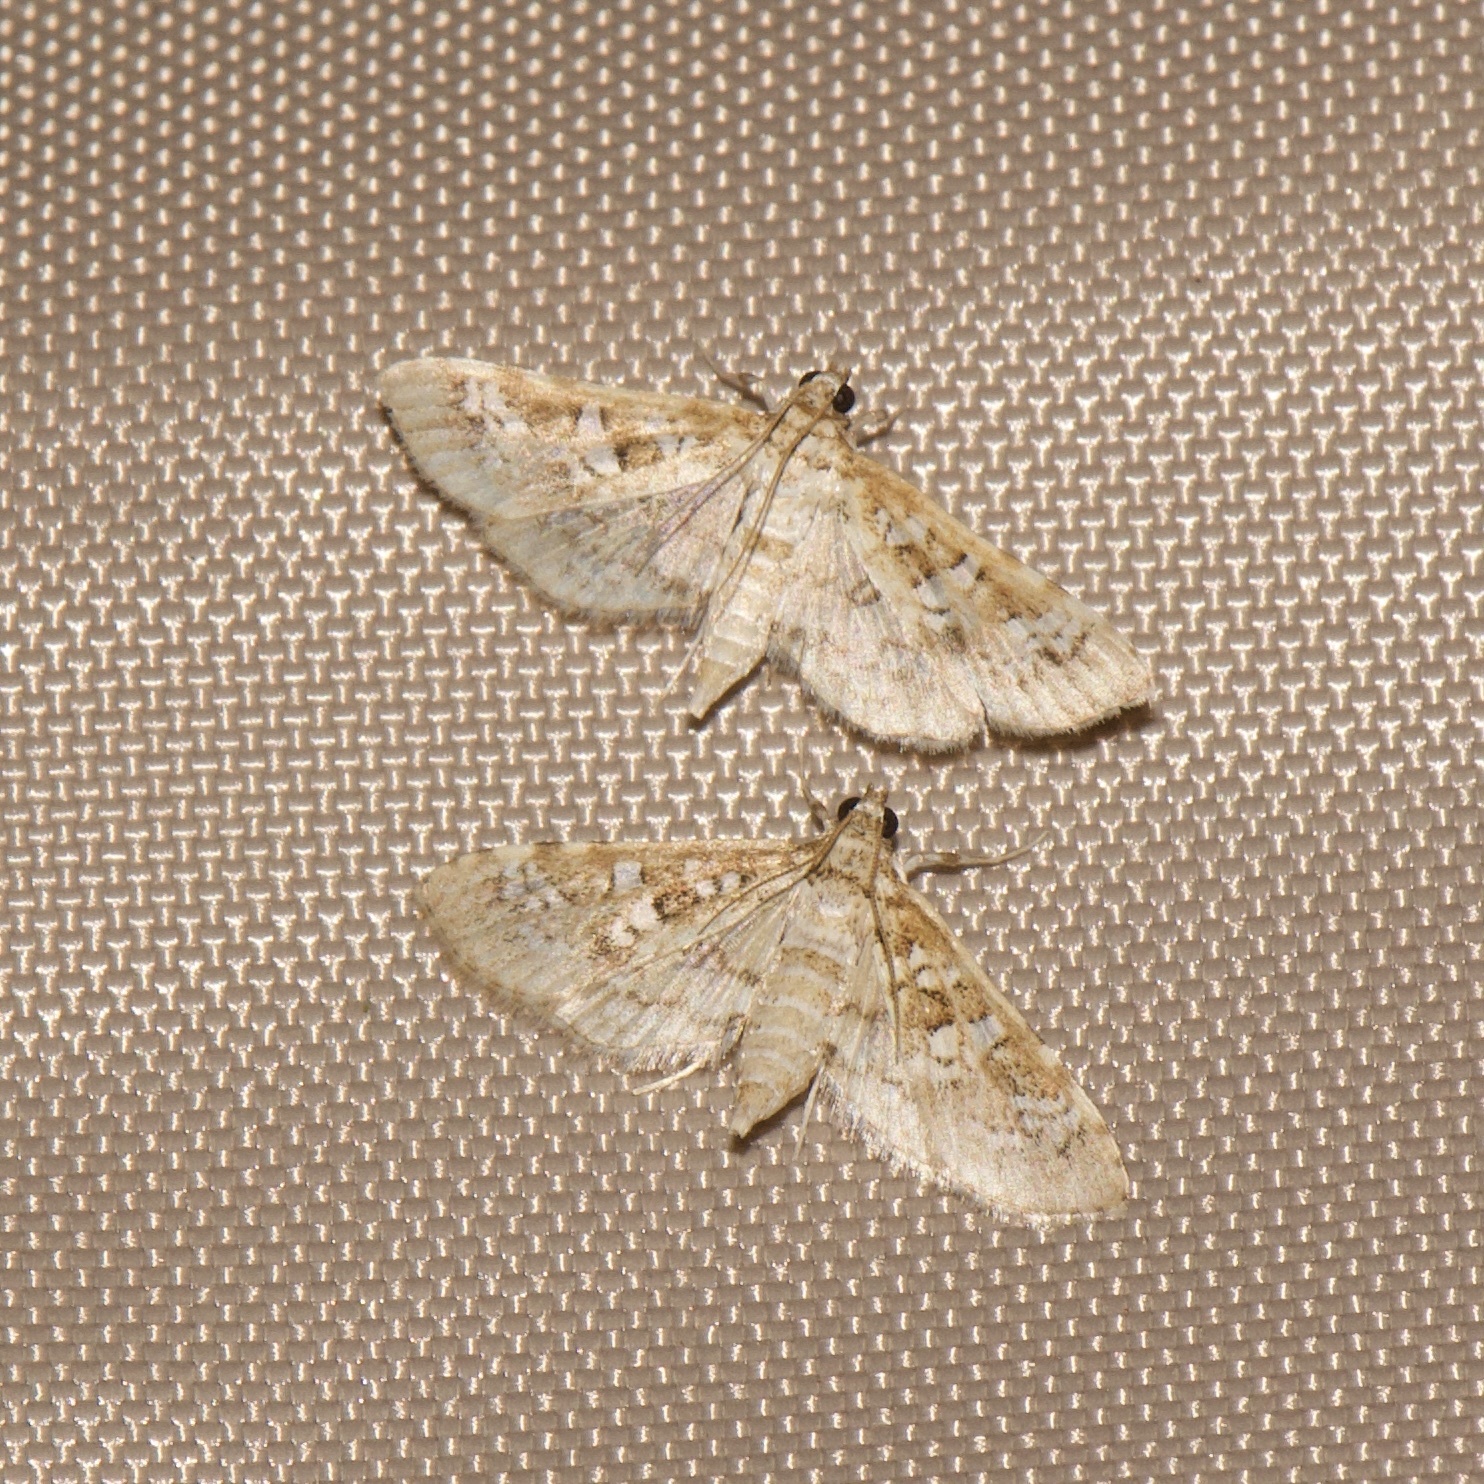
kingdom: Animalia
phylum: Arthropoda
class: Insecta
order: Lepidoptera
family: Crambidae
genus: Samea
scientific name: Samea multiplicalis
